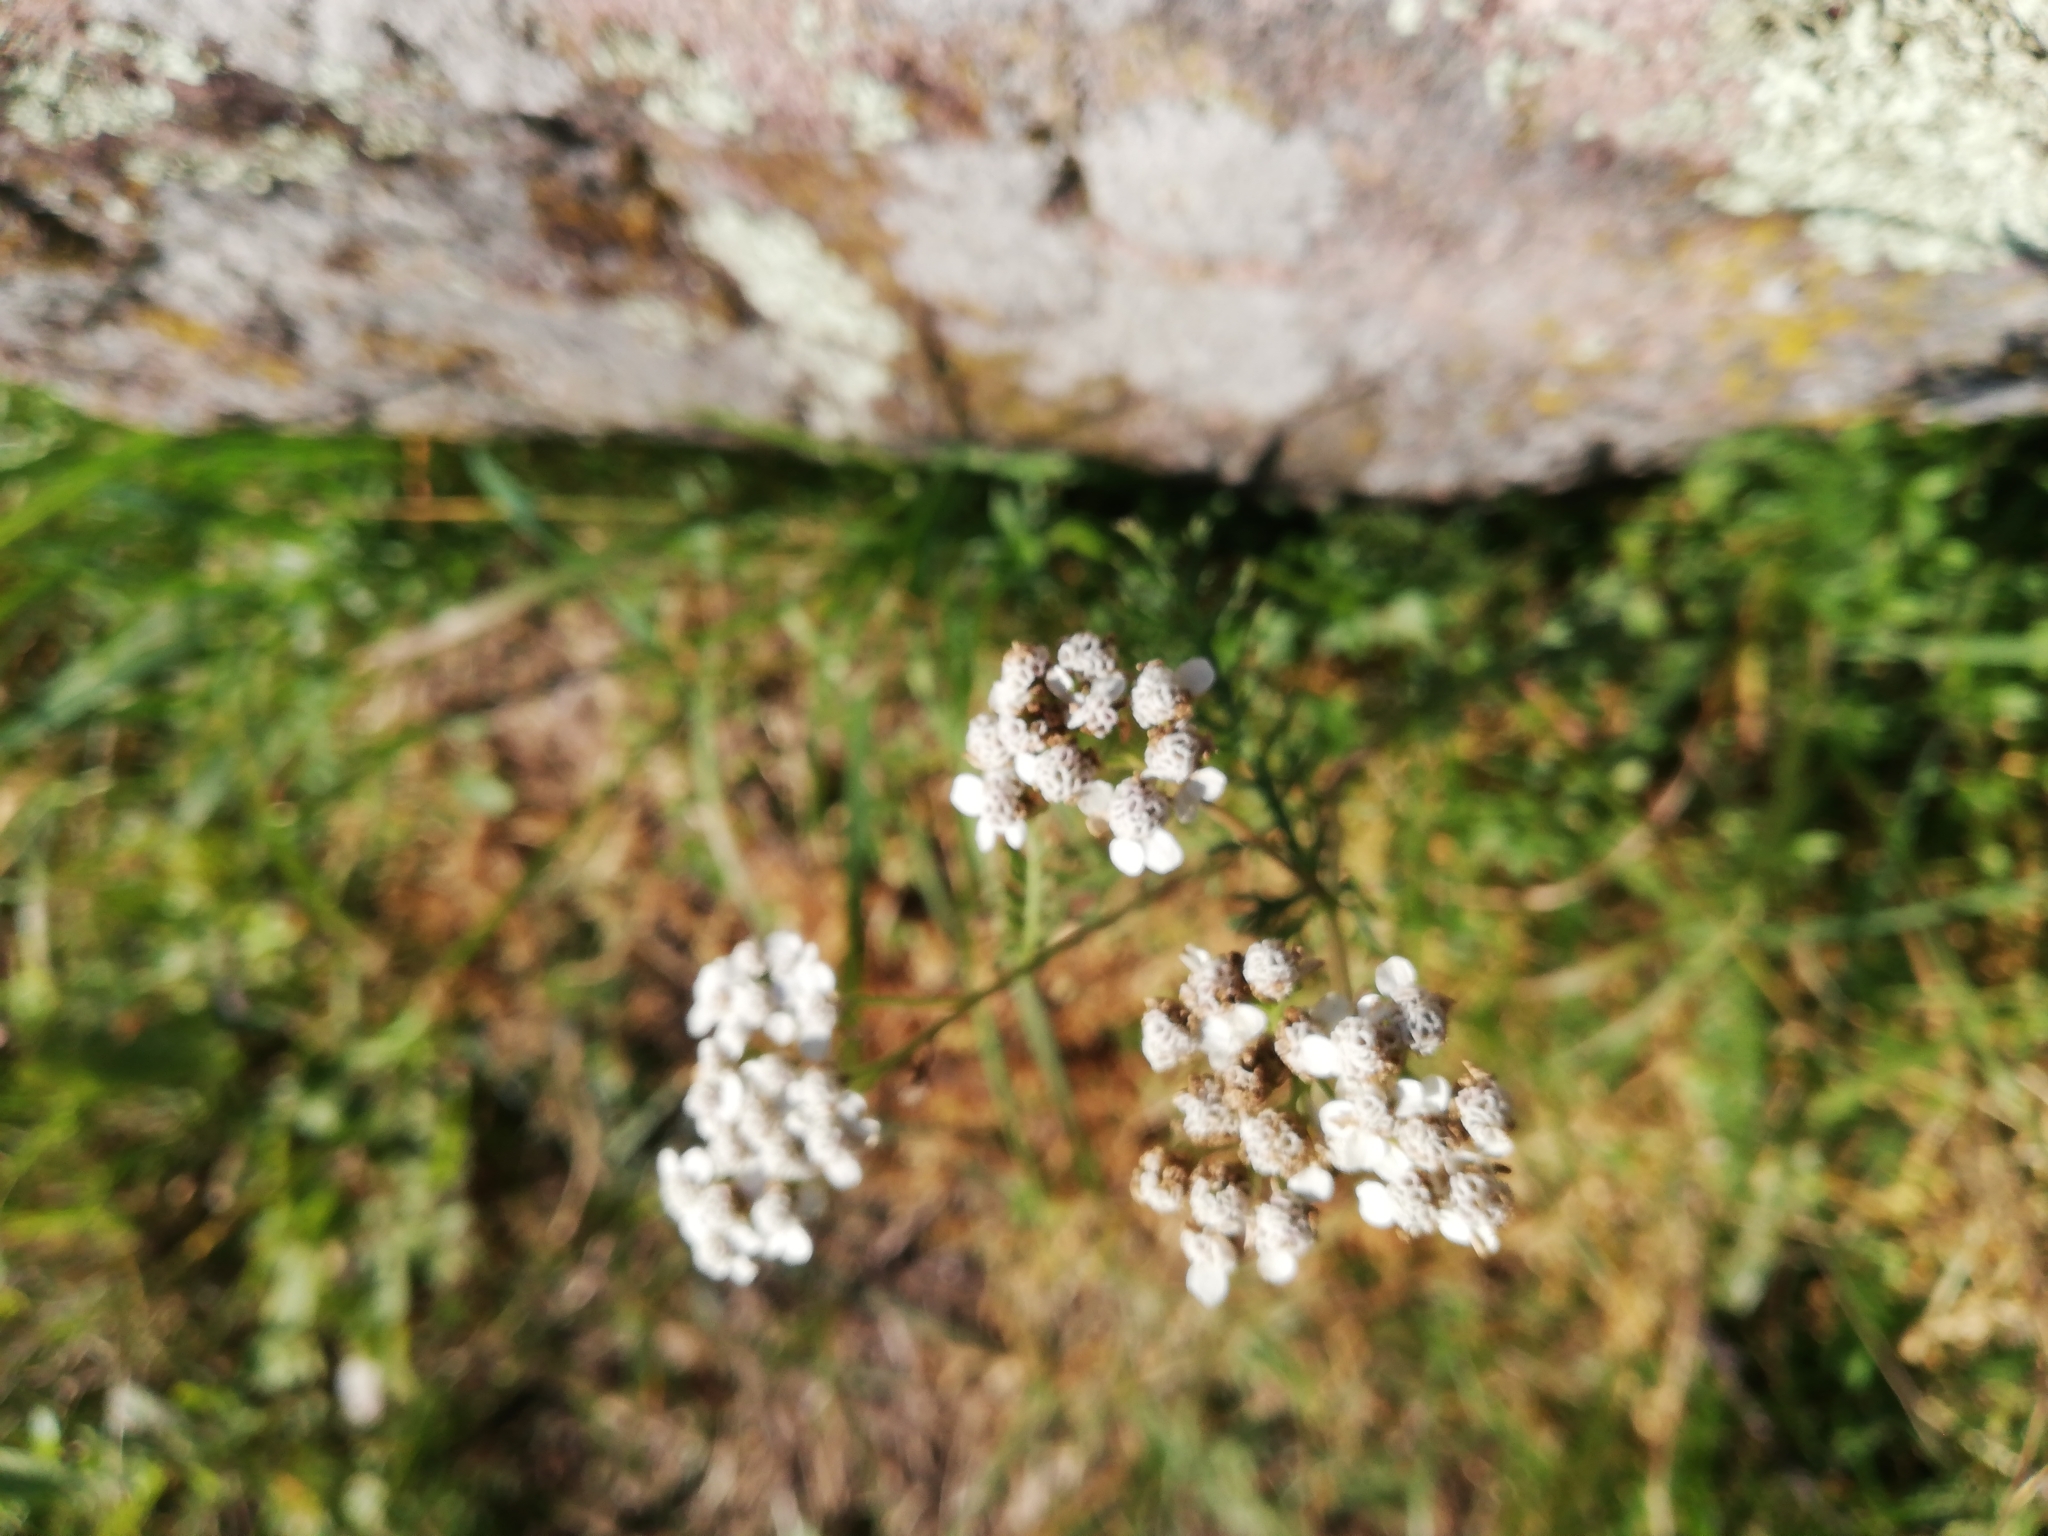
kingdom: Plantae
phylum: Tracheophyta
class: Magnoliopsida
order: Asterales
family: Asteraceae
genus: Achillea
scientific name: Achillea millefolium
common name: Yarrow
